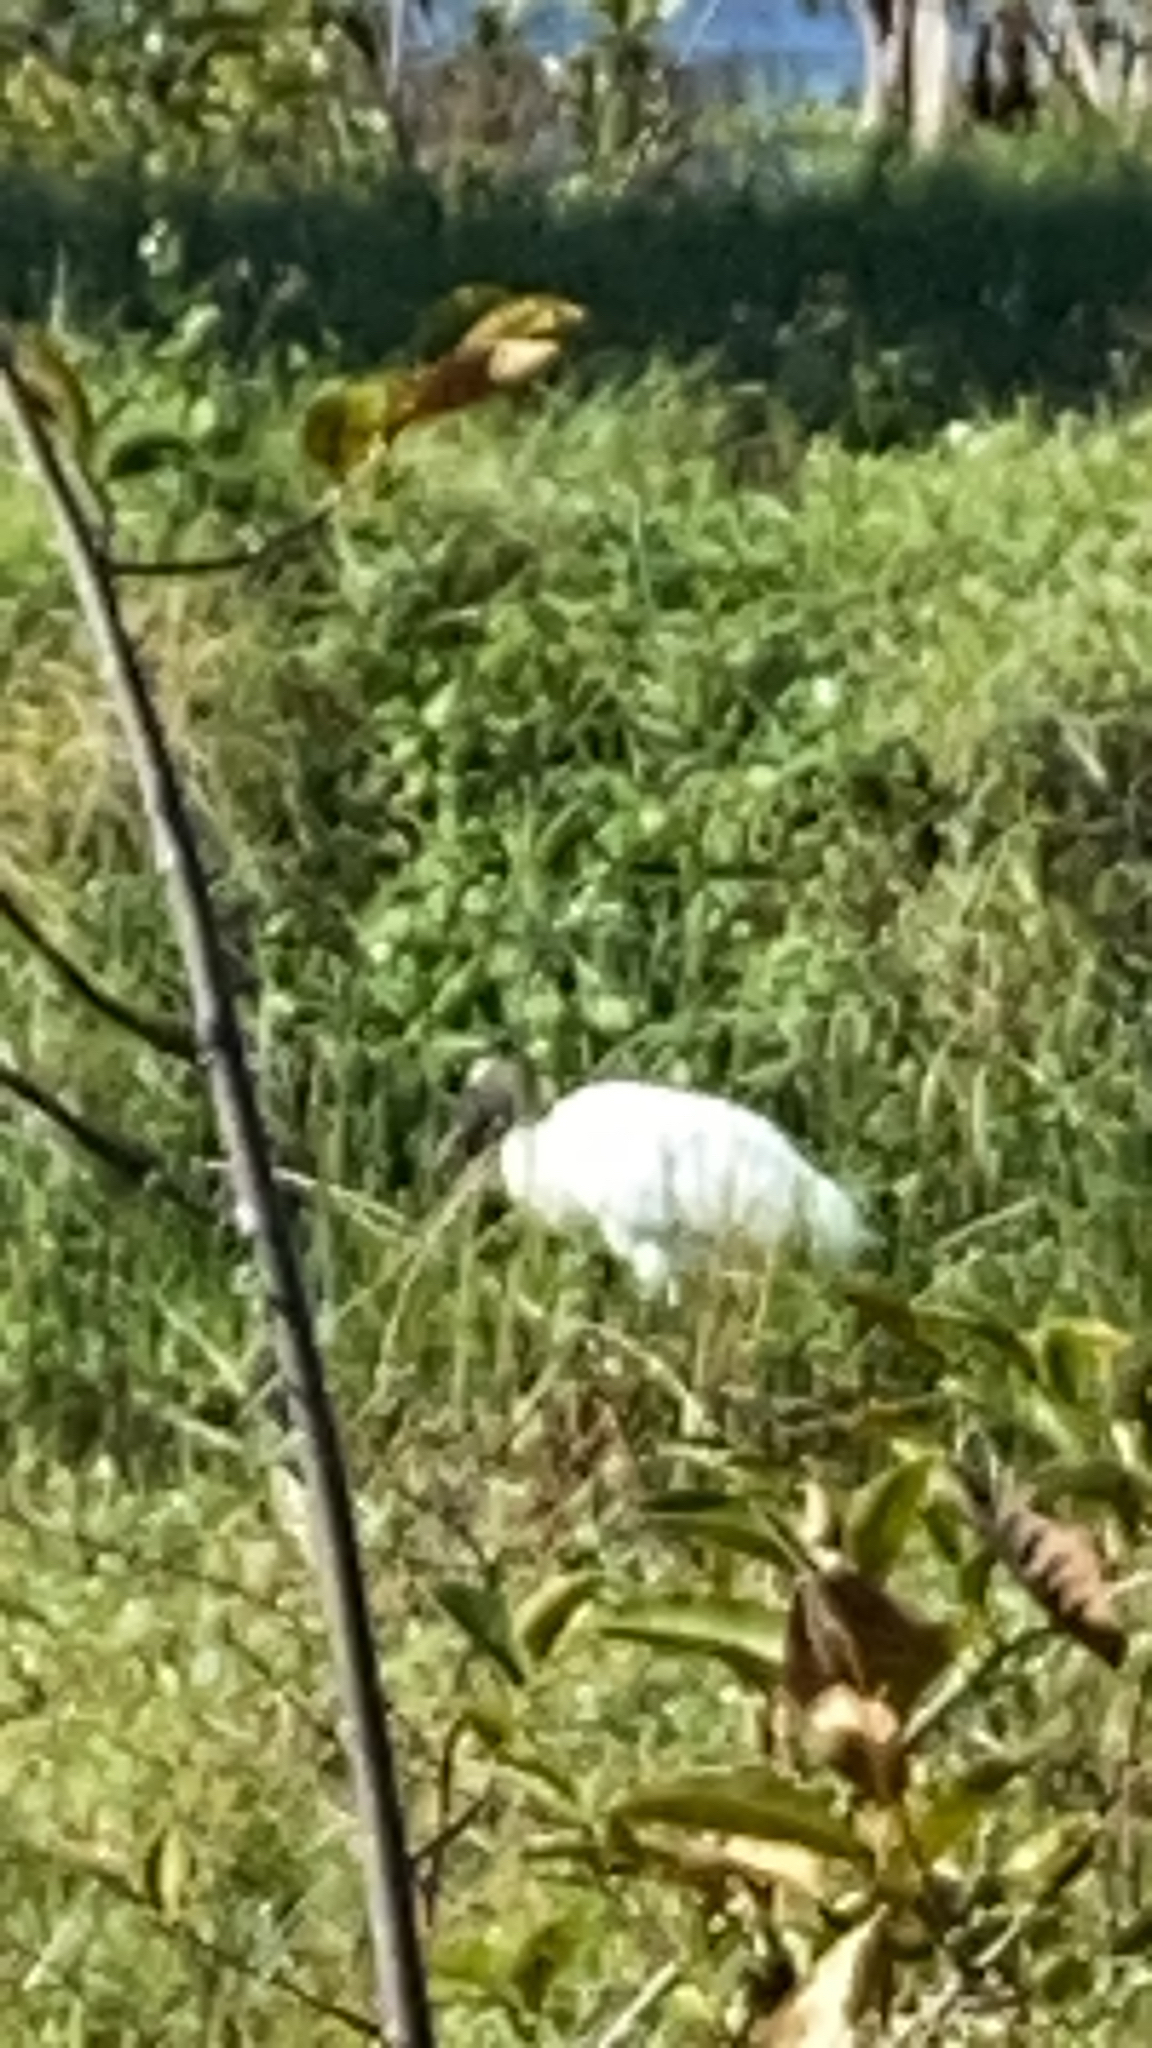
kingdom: Animalia
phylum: Chordata
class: Aves
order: Ciconiiformes
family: Ciconiidae
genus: Mycteria
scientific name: Mycteria americana
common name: Wood stork
